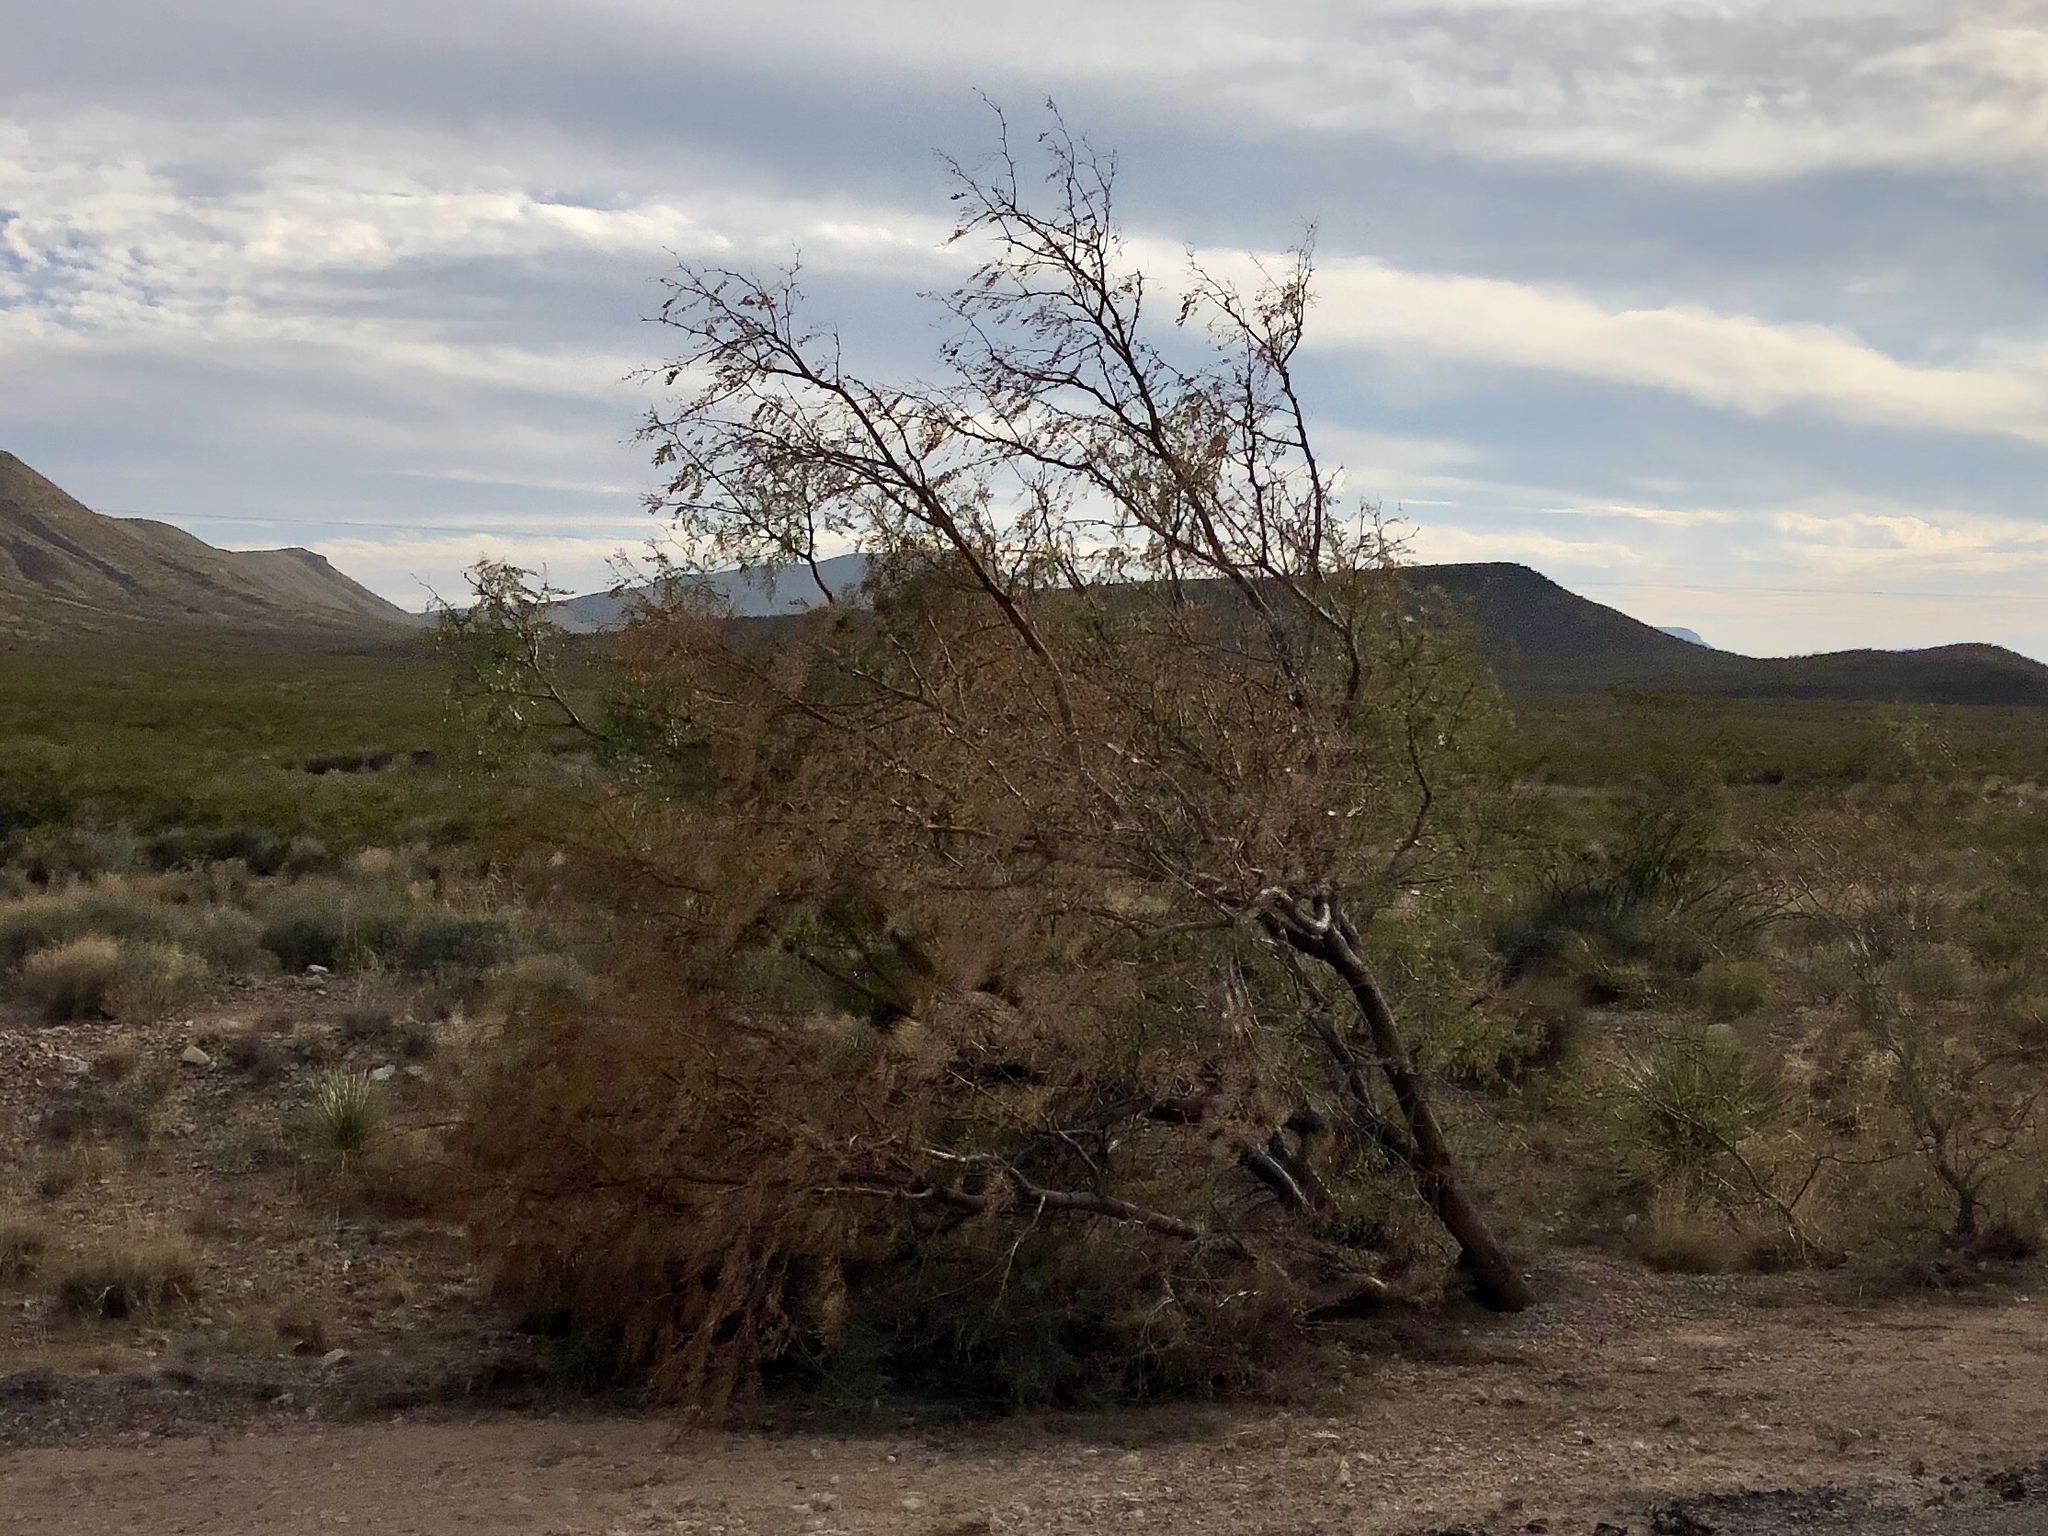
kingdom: Plantae
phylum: Tracheophyta
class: Magnoliopsida
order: Fabales
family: Fabaceae
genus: Prosopis
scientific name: Prosopis glandulosa
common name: Honey mesquite
